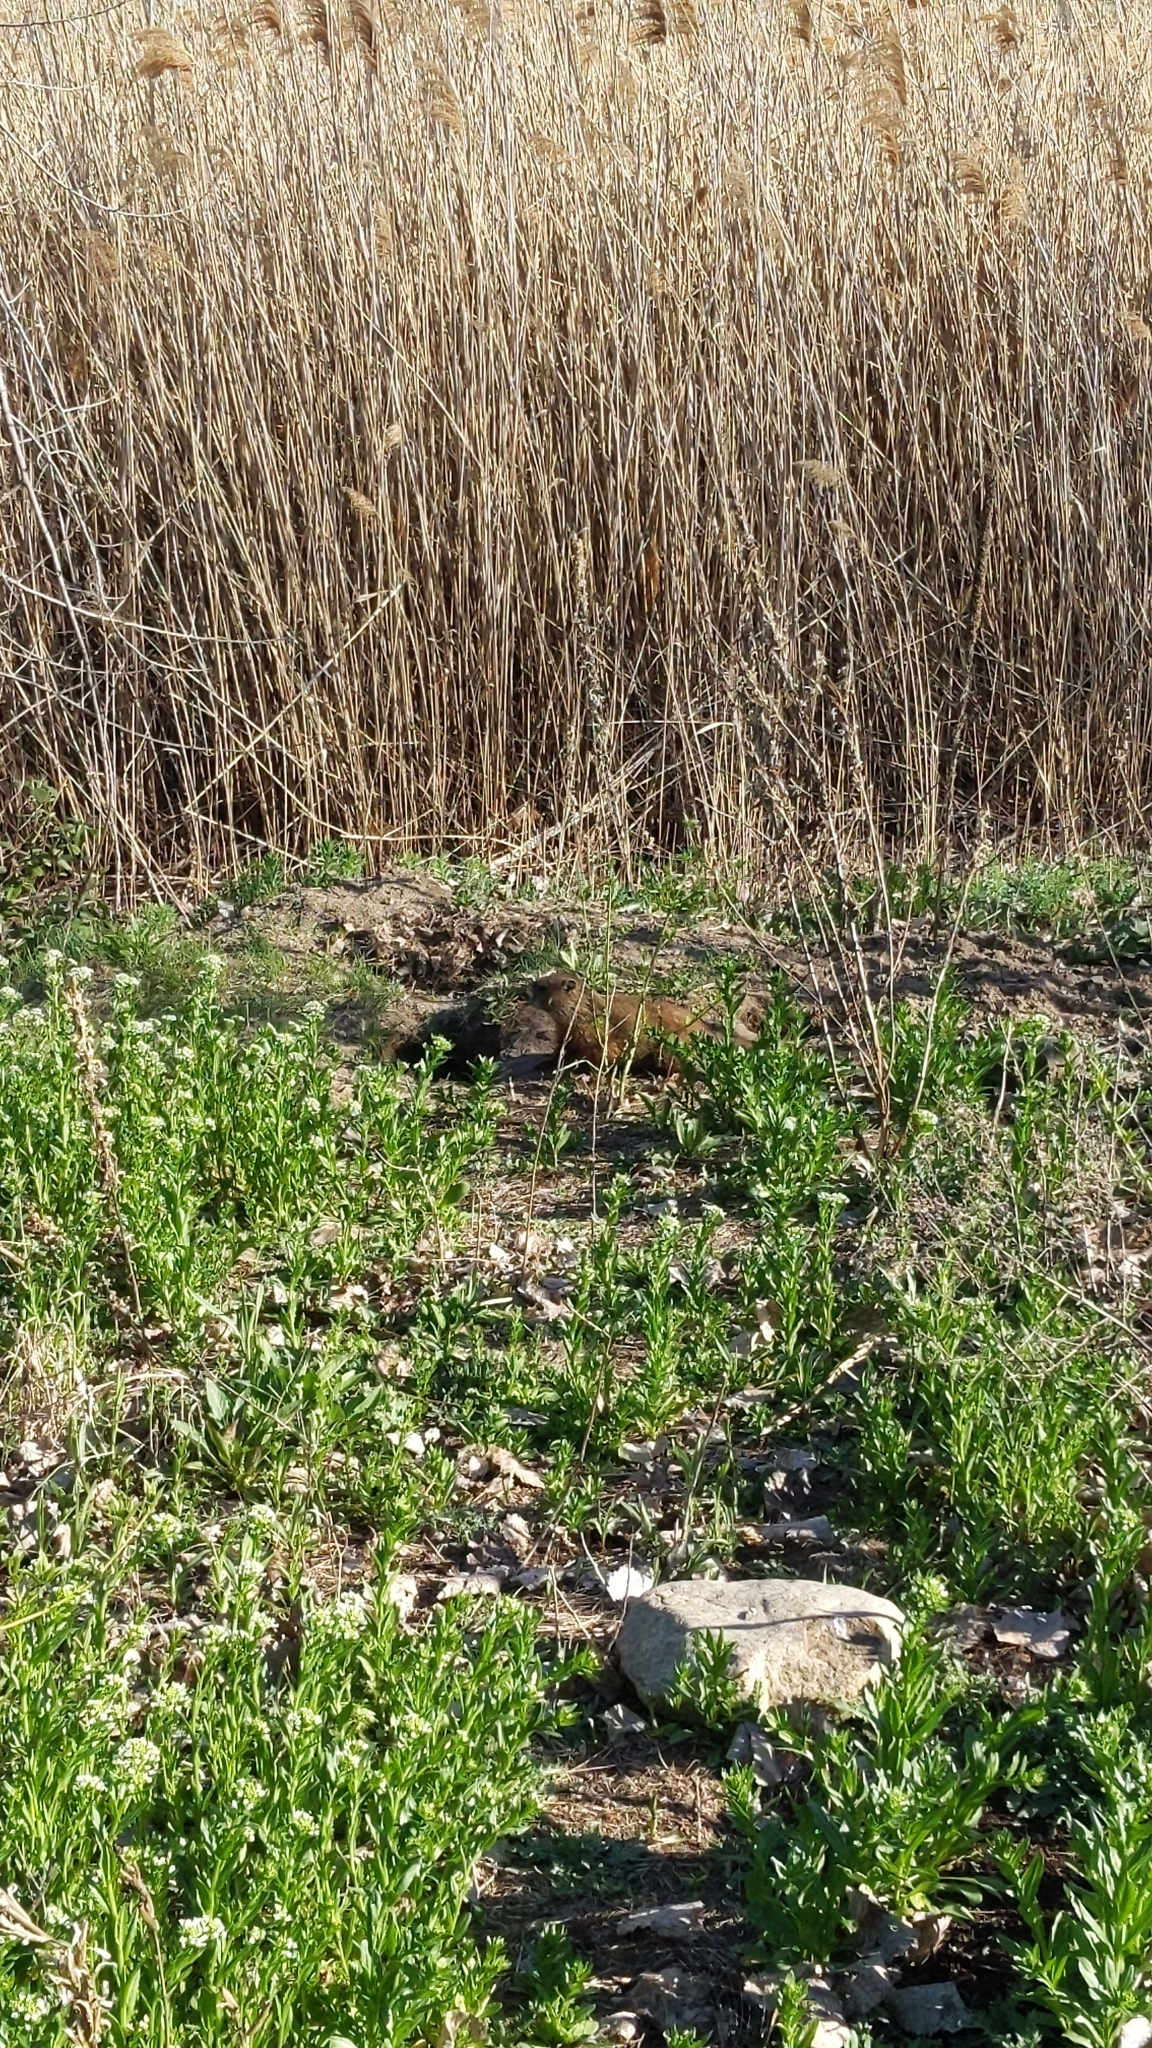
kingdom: Animalia
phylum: Chordata
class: Mammalia
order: Rodentia
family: Sciuridae
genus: Marmota
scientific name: Marmota monax
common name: Groundhog
